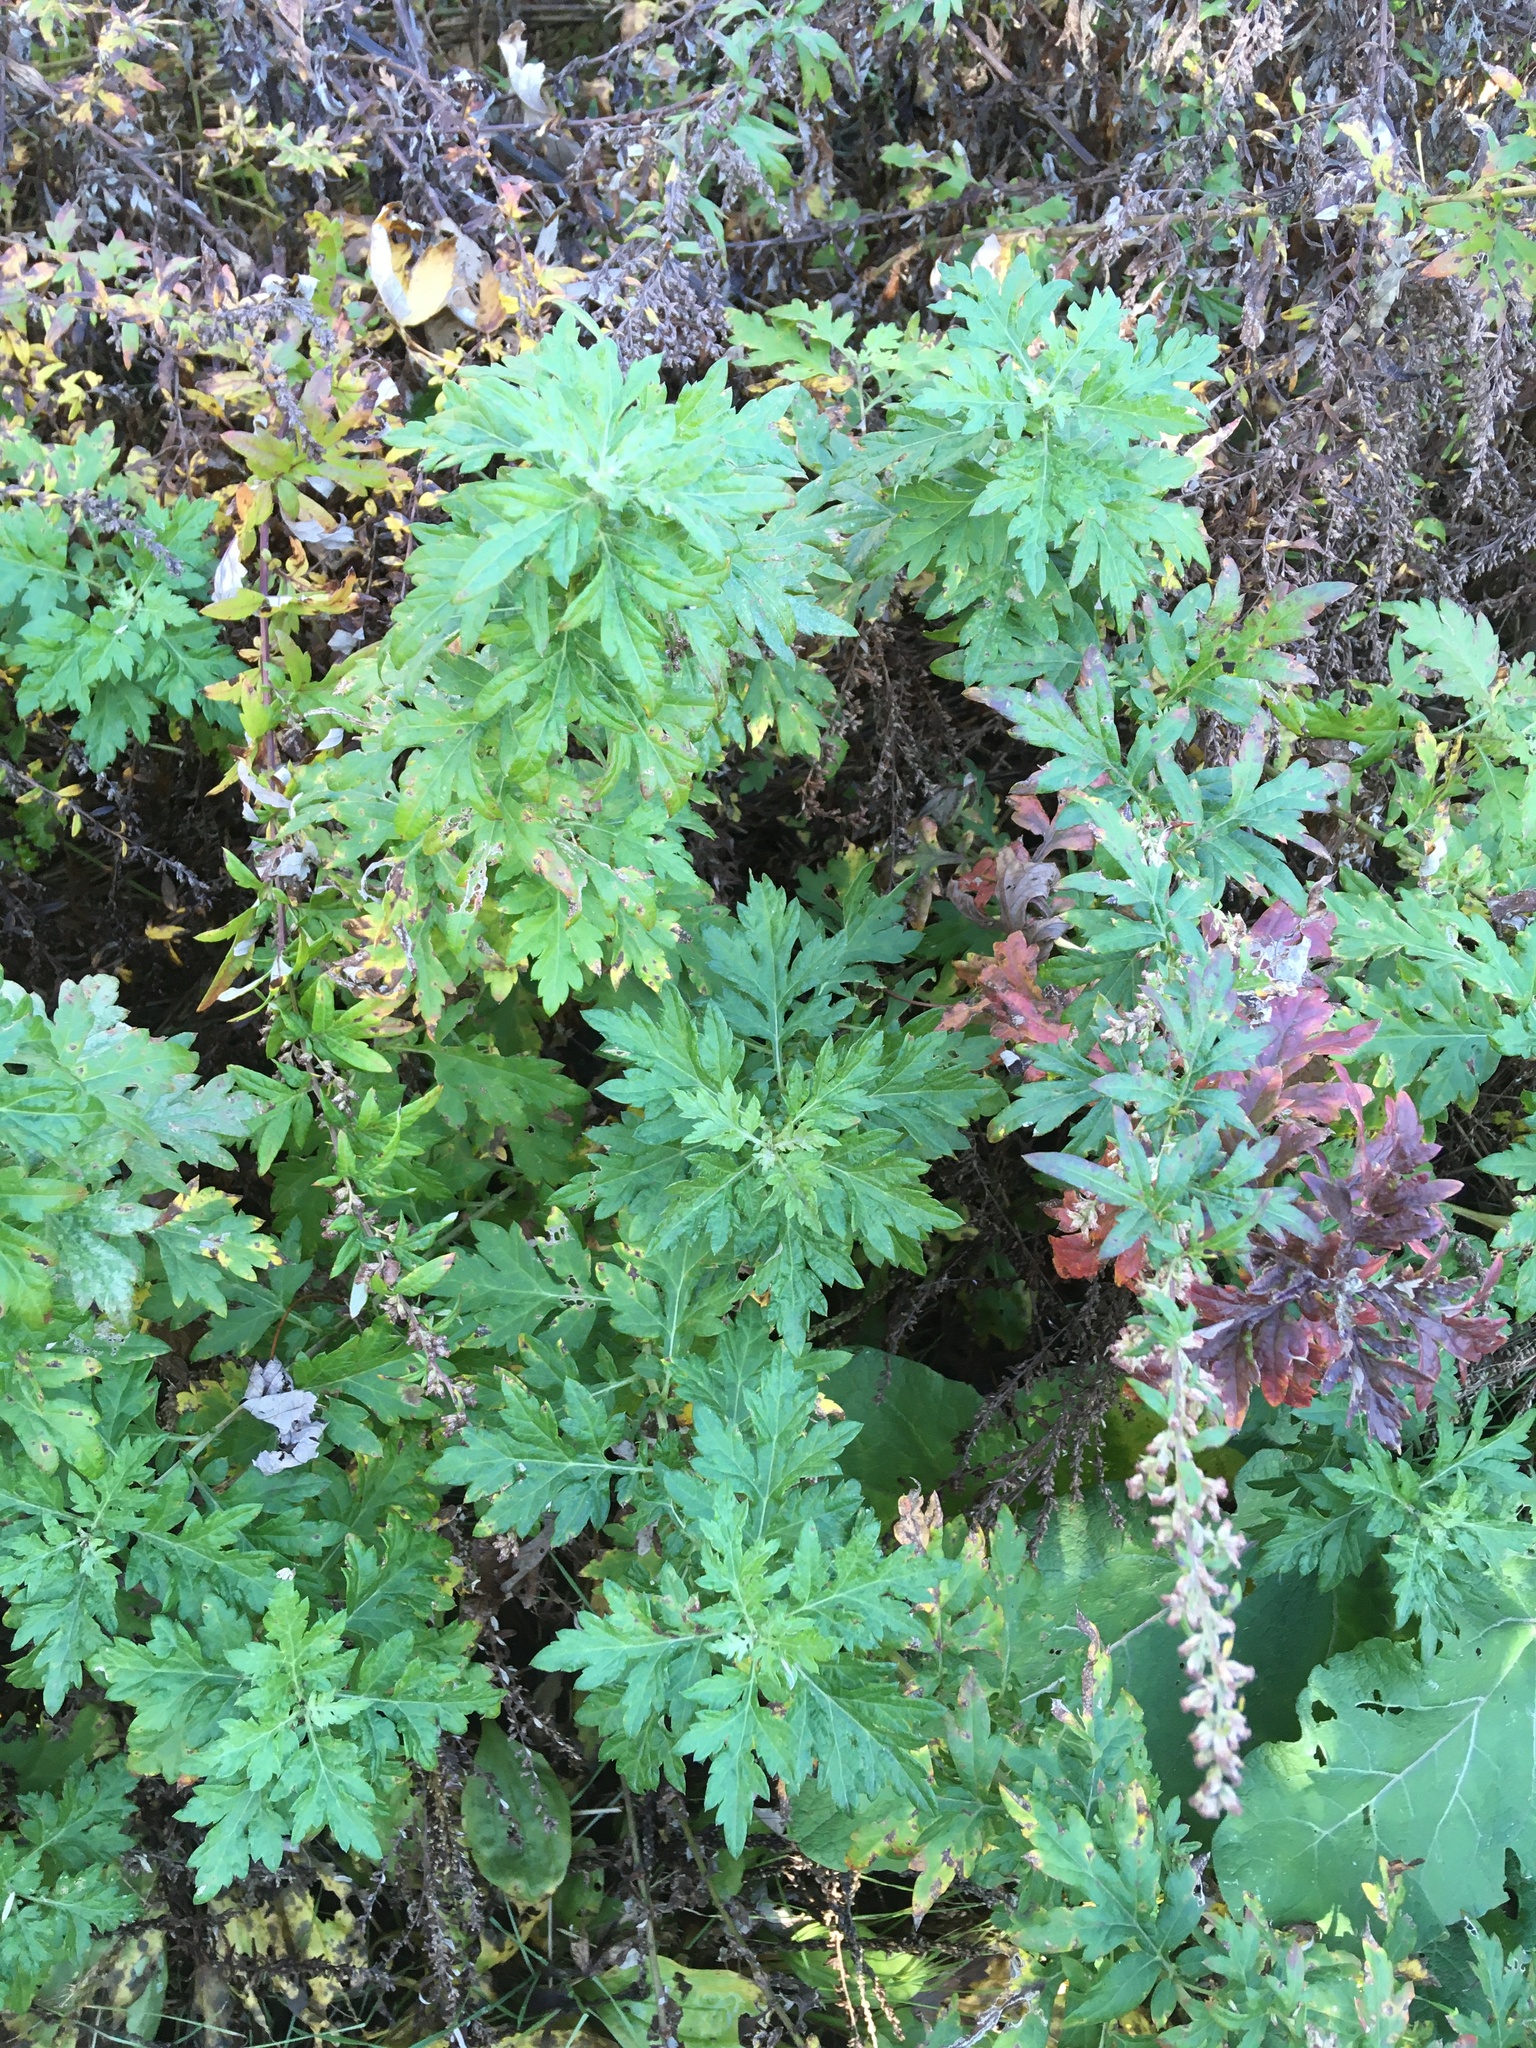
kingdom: Plantae
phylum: Tracheophyta
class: Magnoliopsida
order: Asterales
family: Asteraceae
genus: Artemisia
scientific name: Artemisia vulgaris
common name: Mugwort
